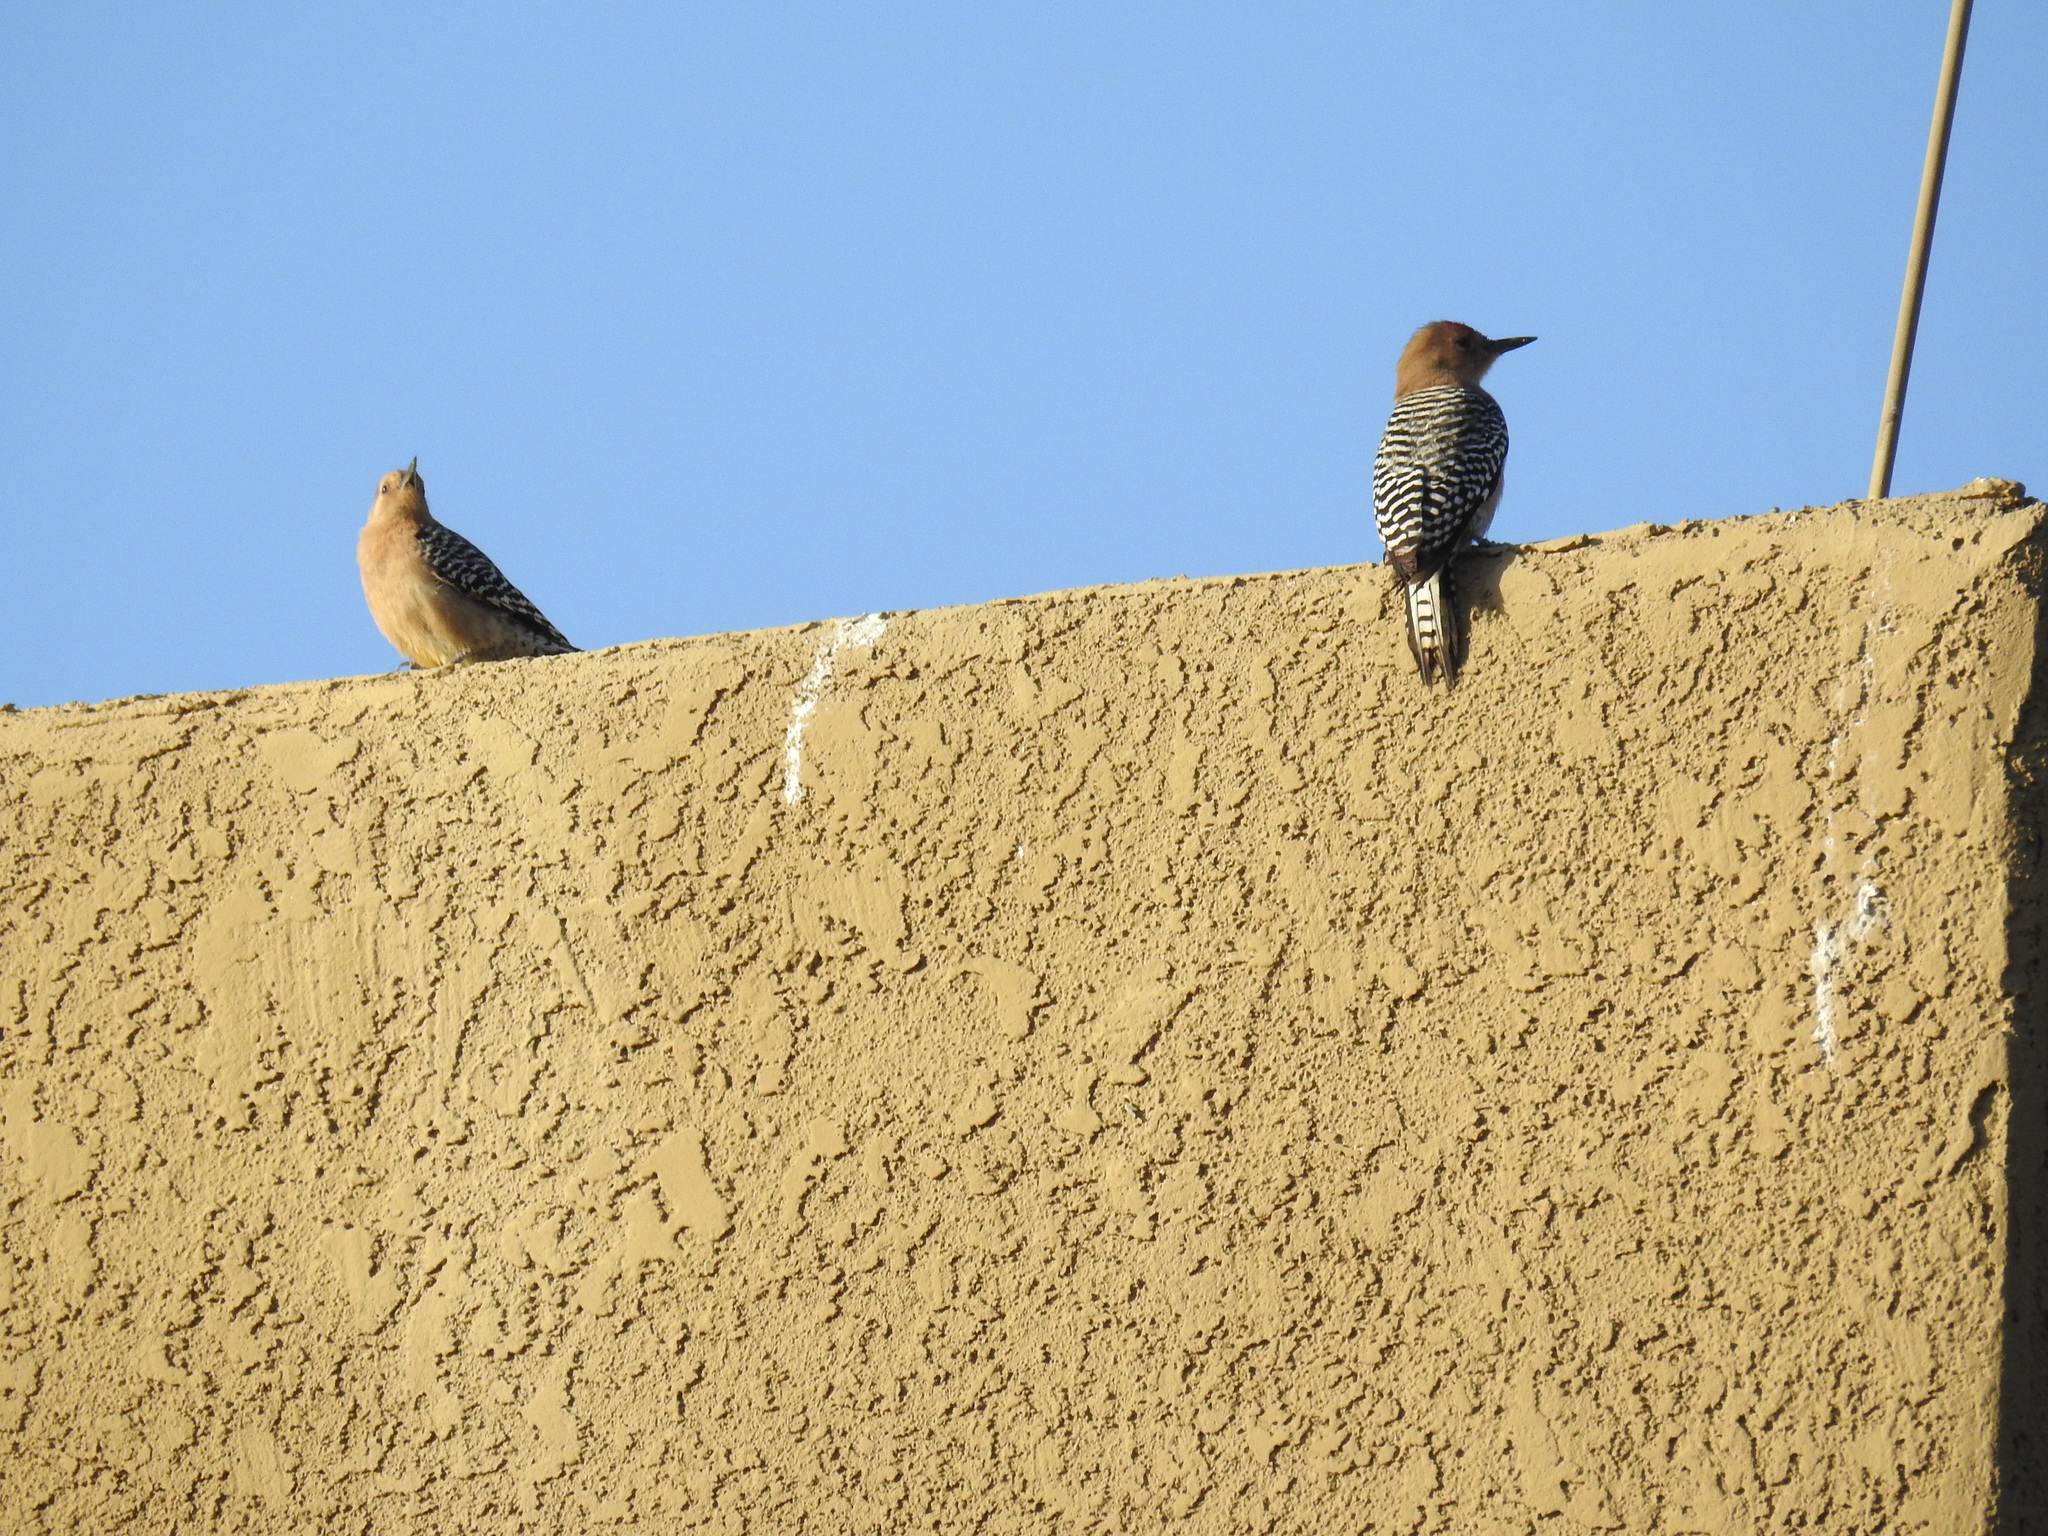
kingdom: Animalia
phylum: Chordata
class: Aves
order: Piciformes
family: Picidae
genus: Melanerpes
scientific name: Melanerpes uropygialis
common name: Gila woodpecker
